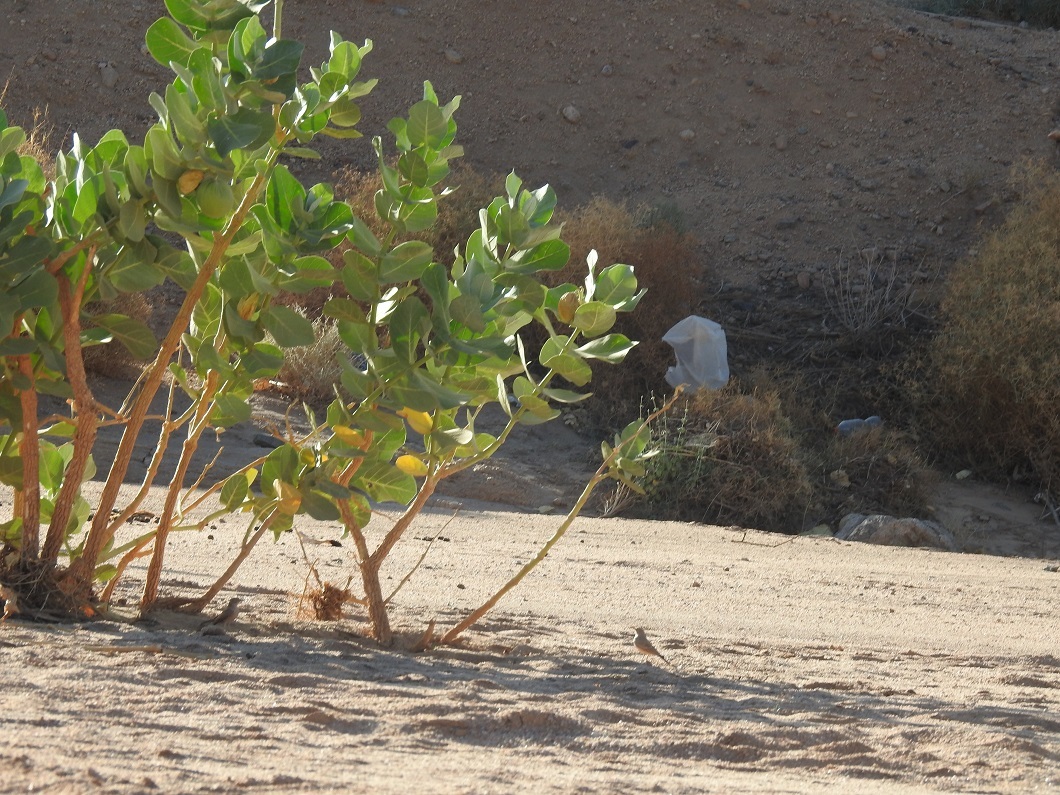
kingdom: Plantae
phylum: Tracheophyta
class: Magnoliopsida
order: Gentianales
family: Apocynaceae
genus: Calotropis
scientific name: Calotropis procera
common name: Roostertree
